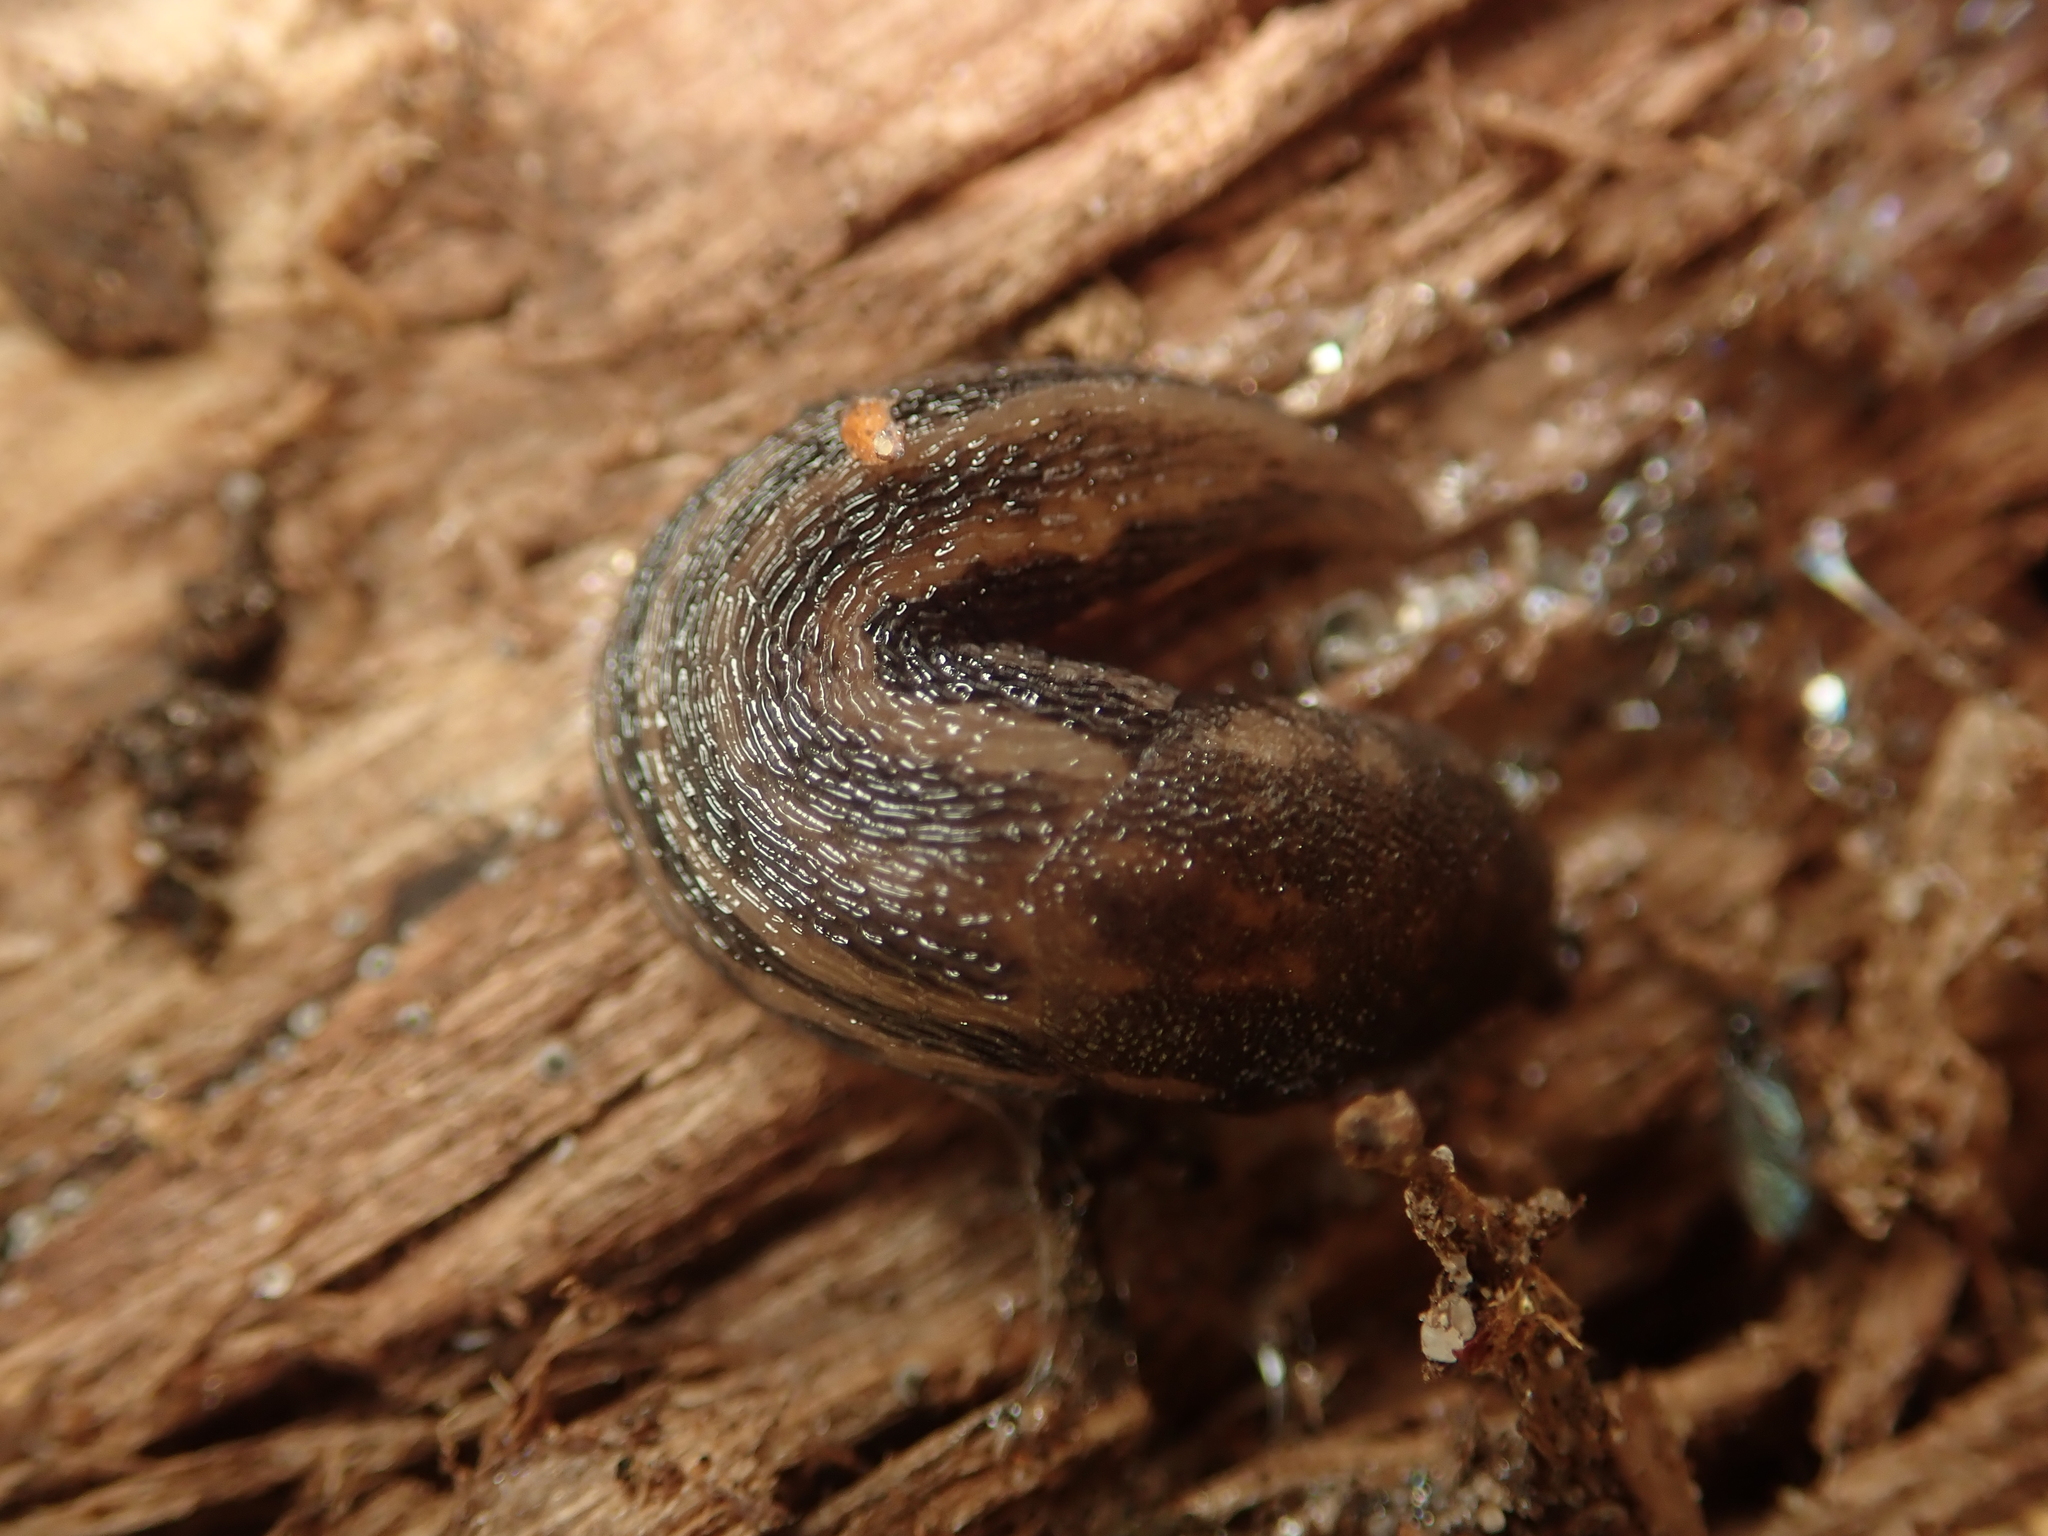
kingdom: Animalia
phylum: Mollusca
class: Gastropoda
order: Stylommatophora
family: Limacidae
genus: Limax
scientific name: Limax maximus
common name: Great grey slug
